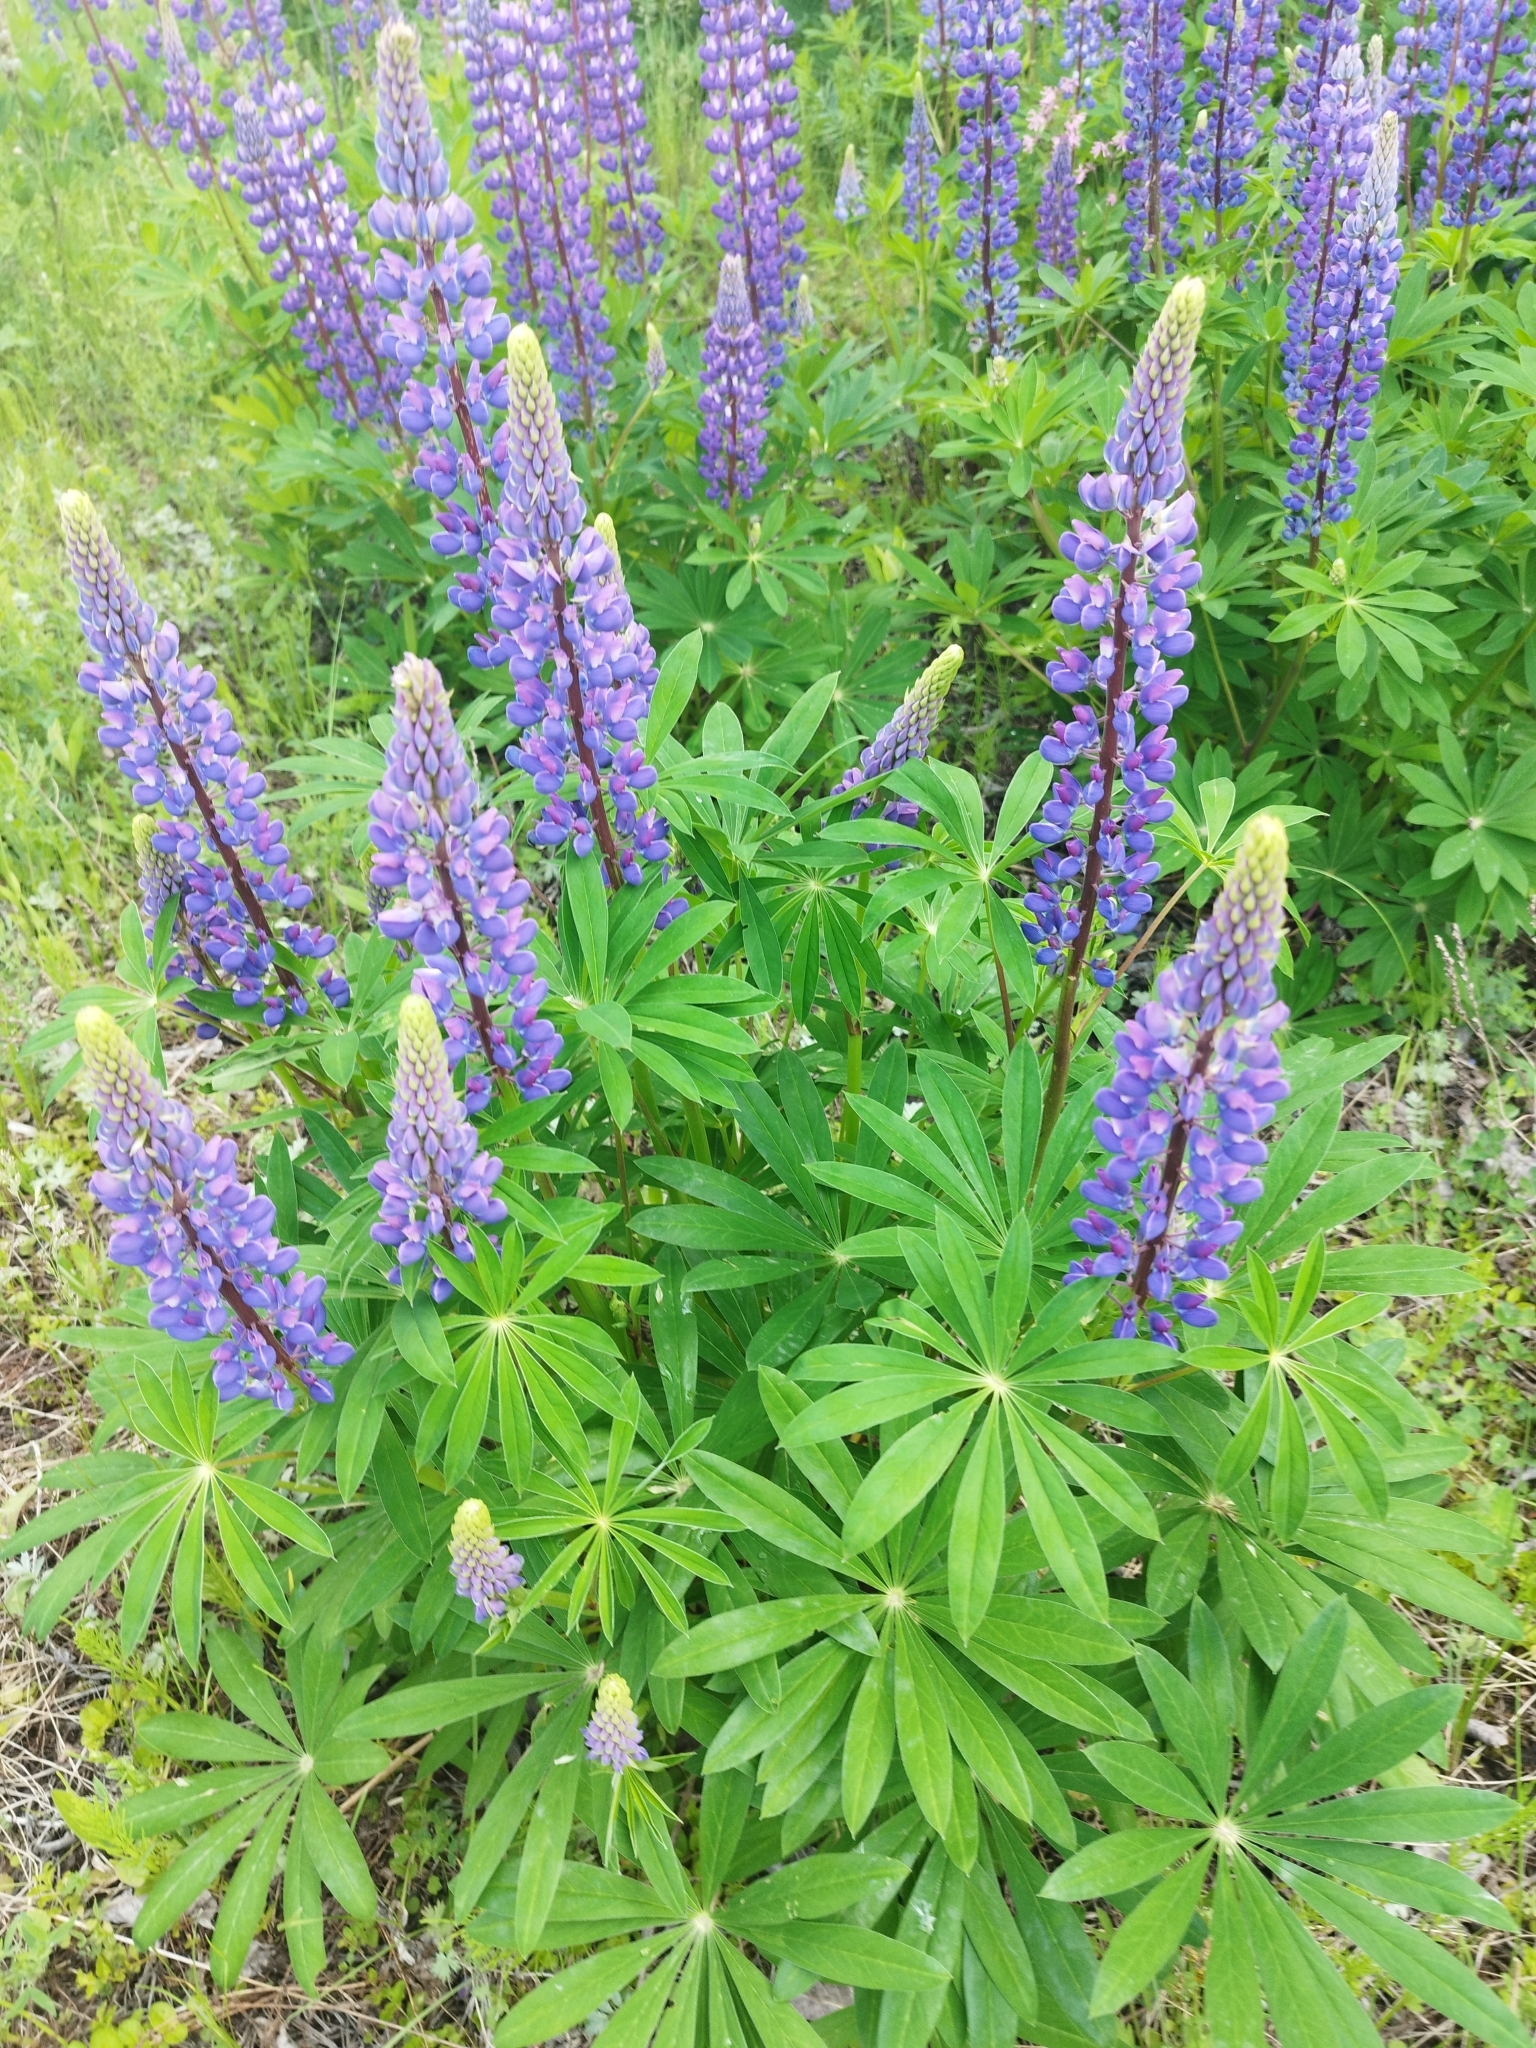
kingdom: Plantae
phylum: Tracheophyta
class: Magnoliopsida
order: Fabales
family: Fabaceae
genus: Lupinus
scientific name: Lupinus polyphyllus
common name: Garden lupin
